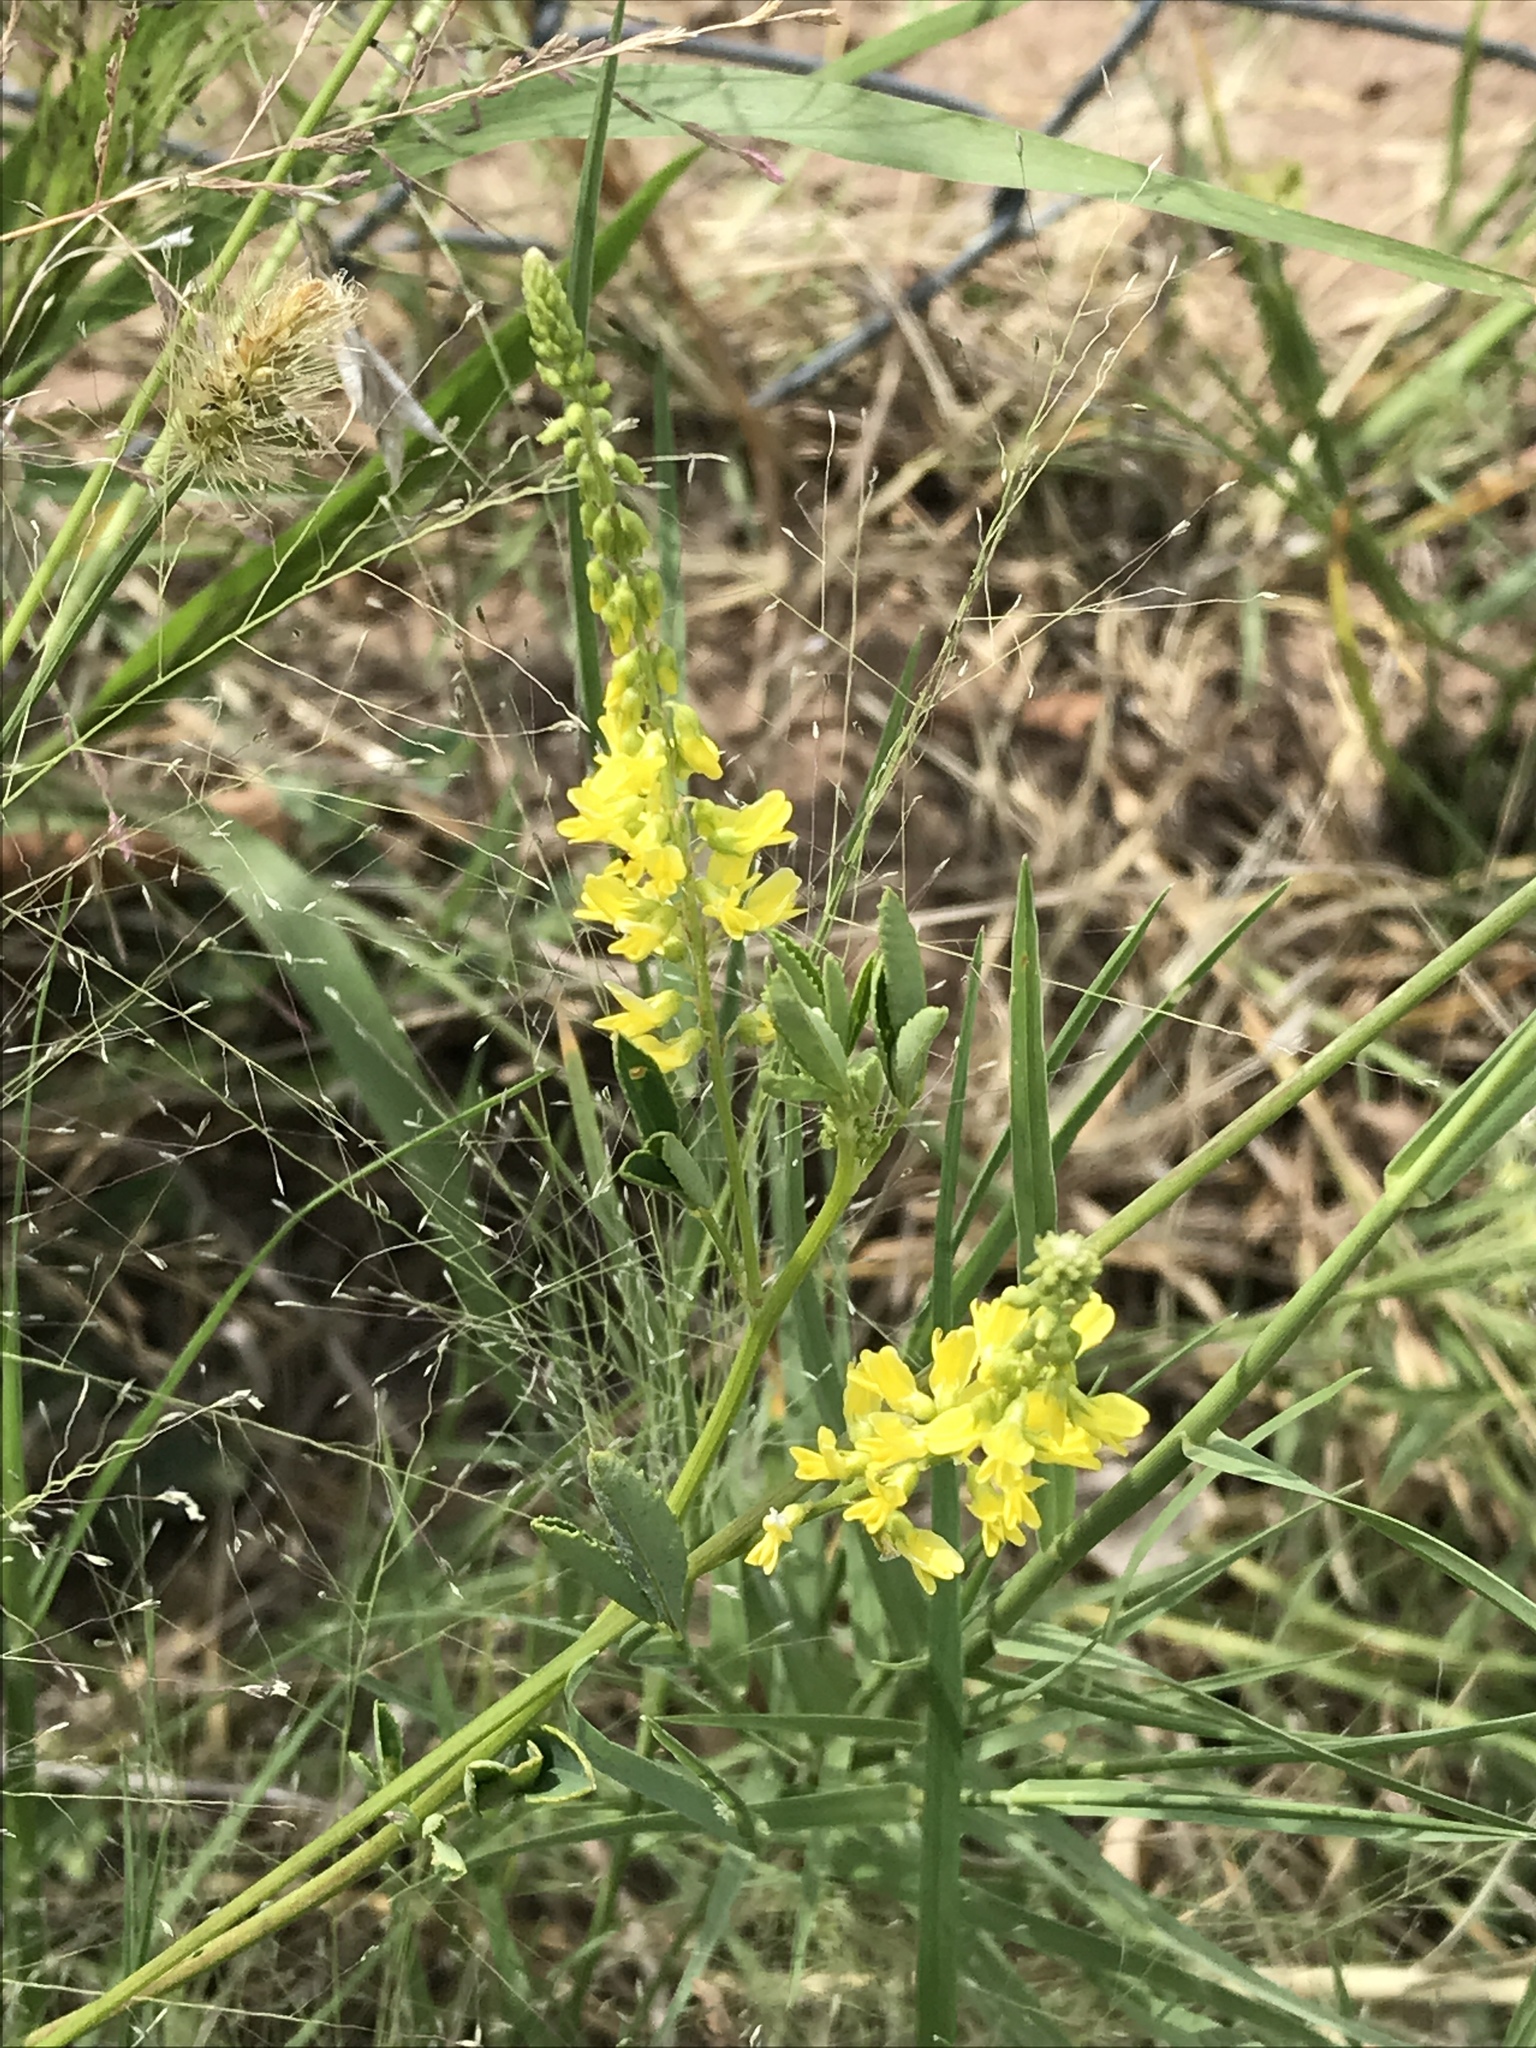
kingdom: Plantae
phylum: Tracheophyta
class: Magnoliopsida
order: Fabales
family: Fabaceae
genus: Melilotus
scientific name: Melilotus officinalis
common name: Sweetclover
